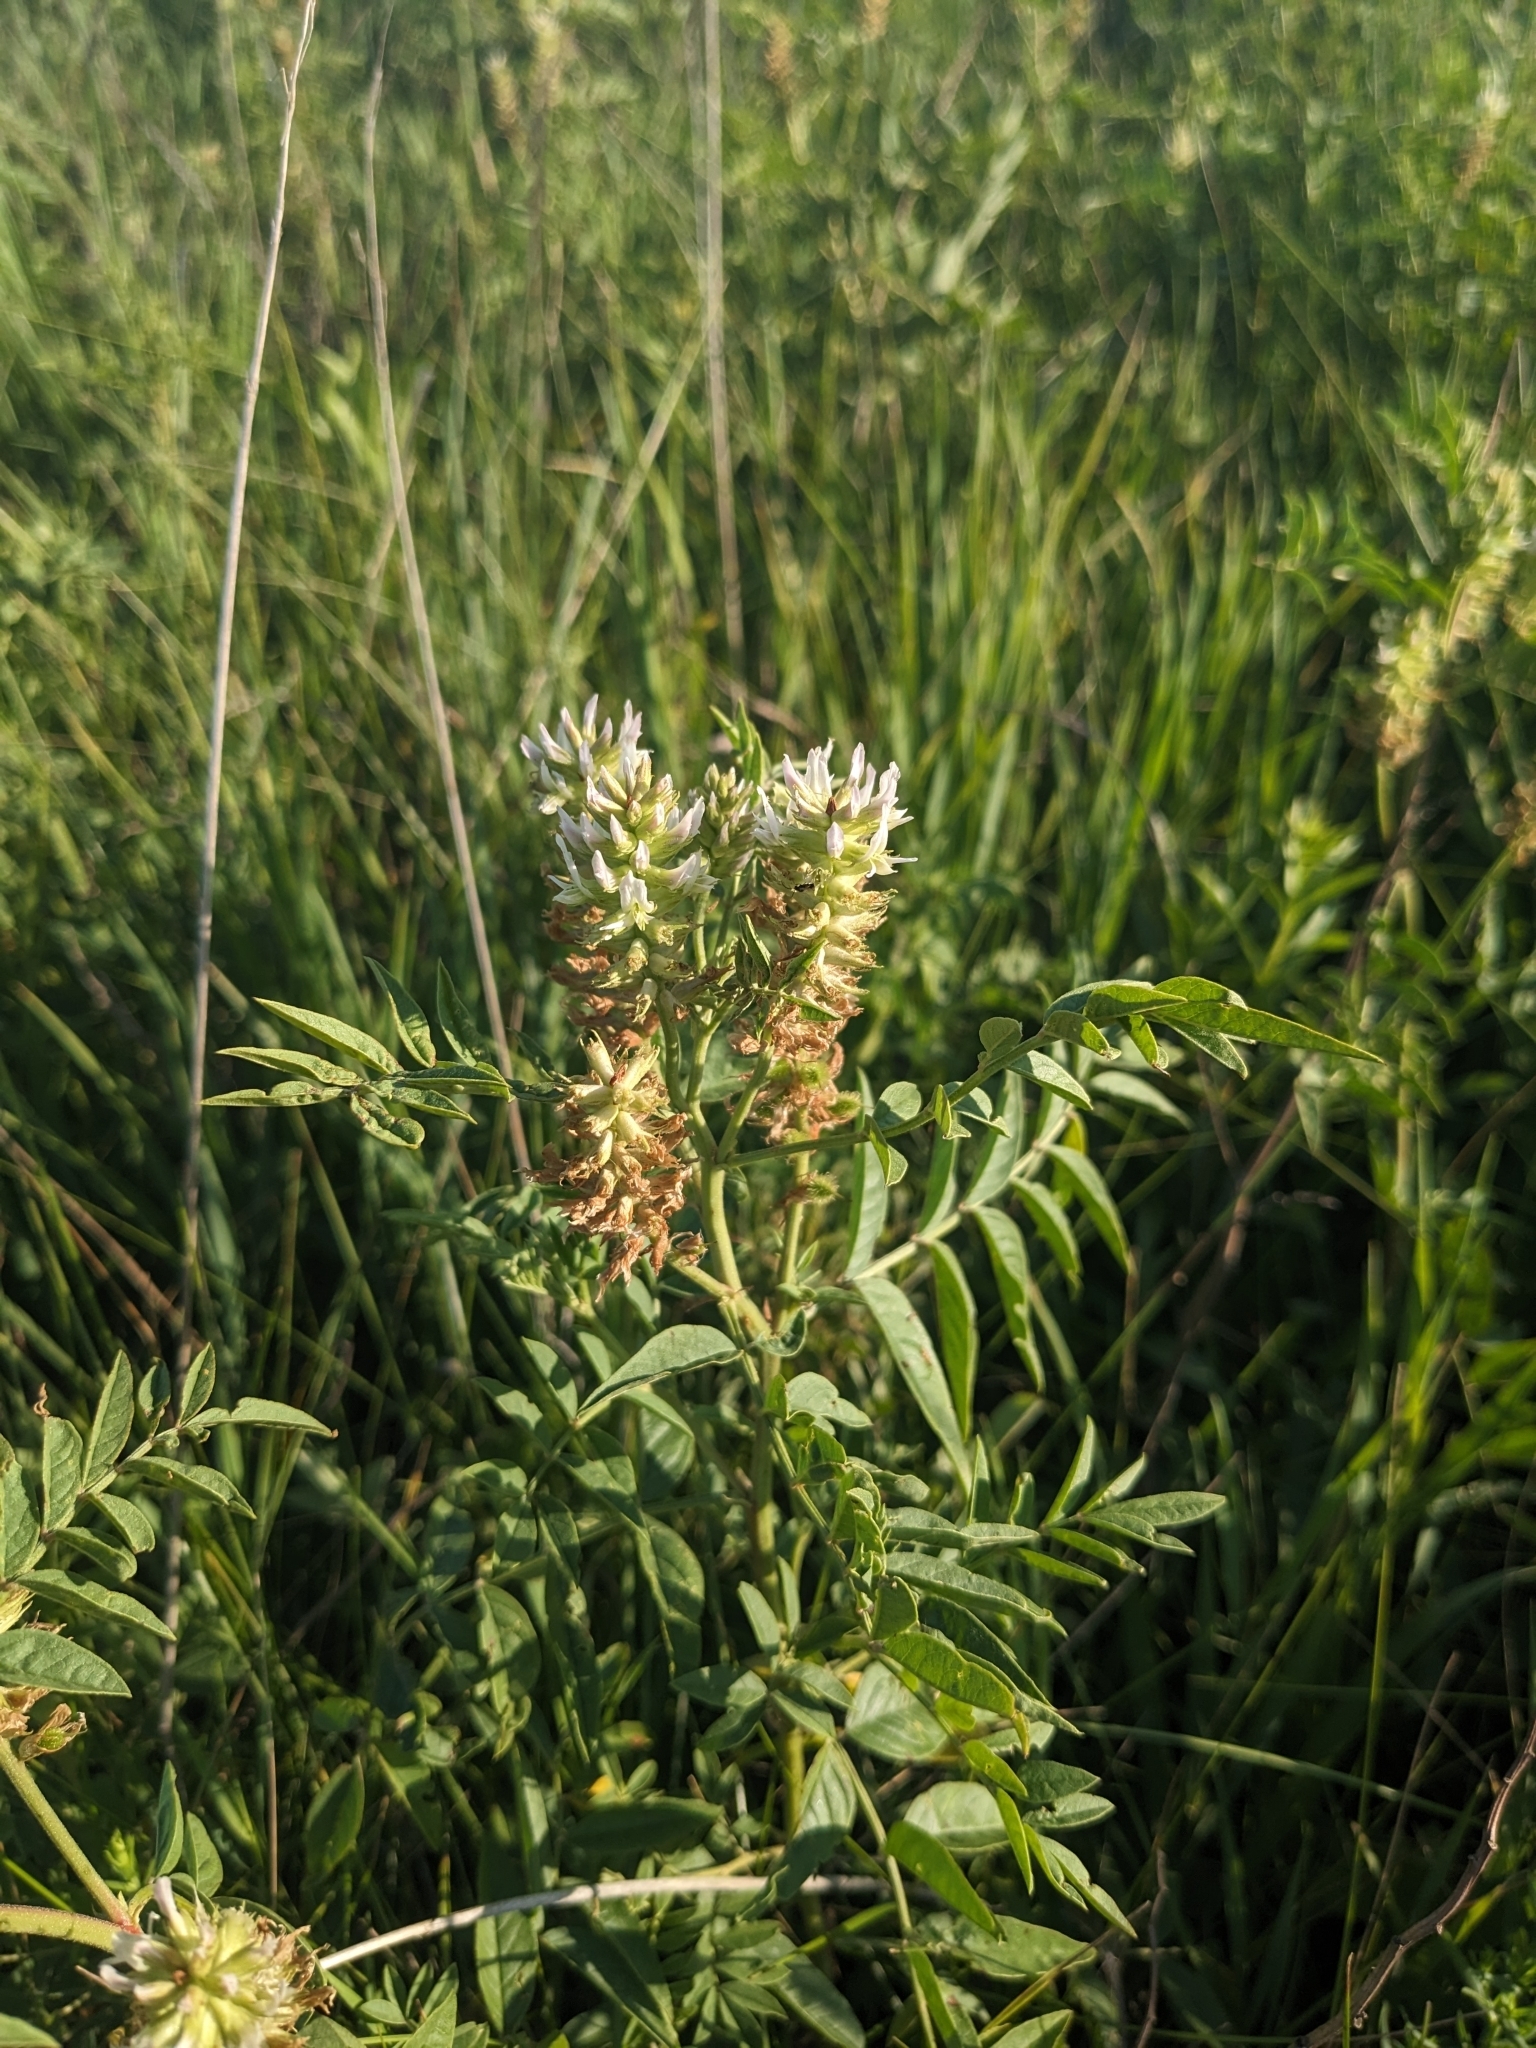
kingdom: Plantae
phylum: Tracheophyta
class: Magnoliopsida
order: Fabales
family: Fabaceae
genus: Glycyrrhiza
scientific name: Glycyrrhiza lepidota
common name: American liquorice
